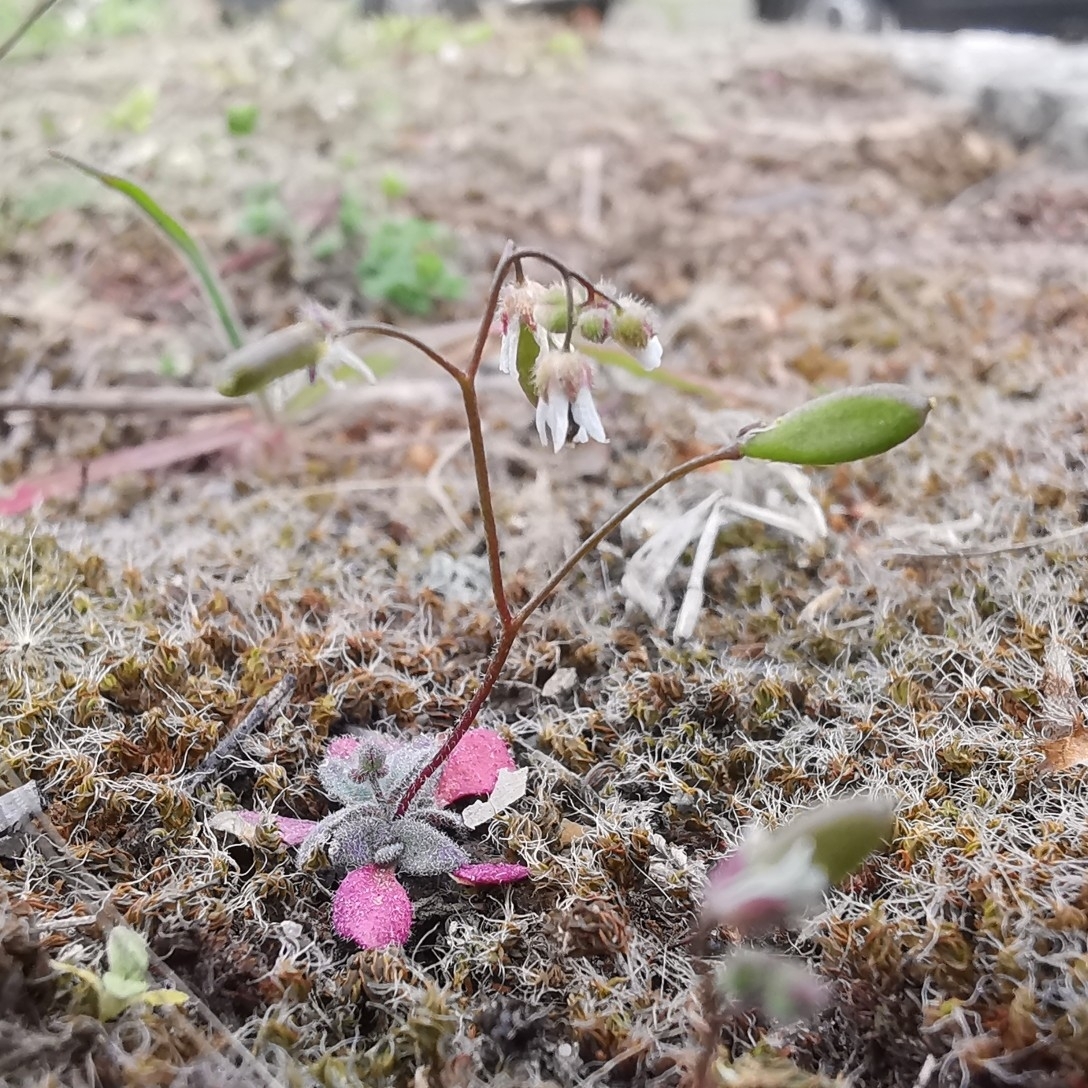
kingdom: Plantae
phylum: Tracheophyta
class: Magnoliopsida
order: Brassicales
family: Brassicaceae
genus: Draba
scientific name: Draba verna
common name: Spring draba
